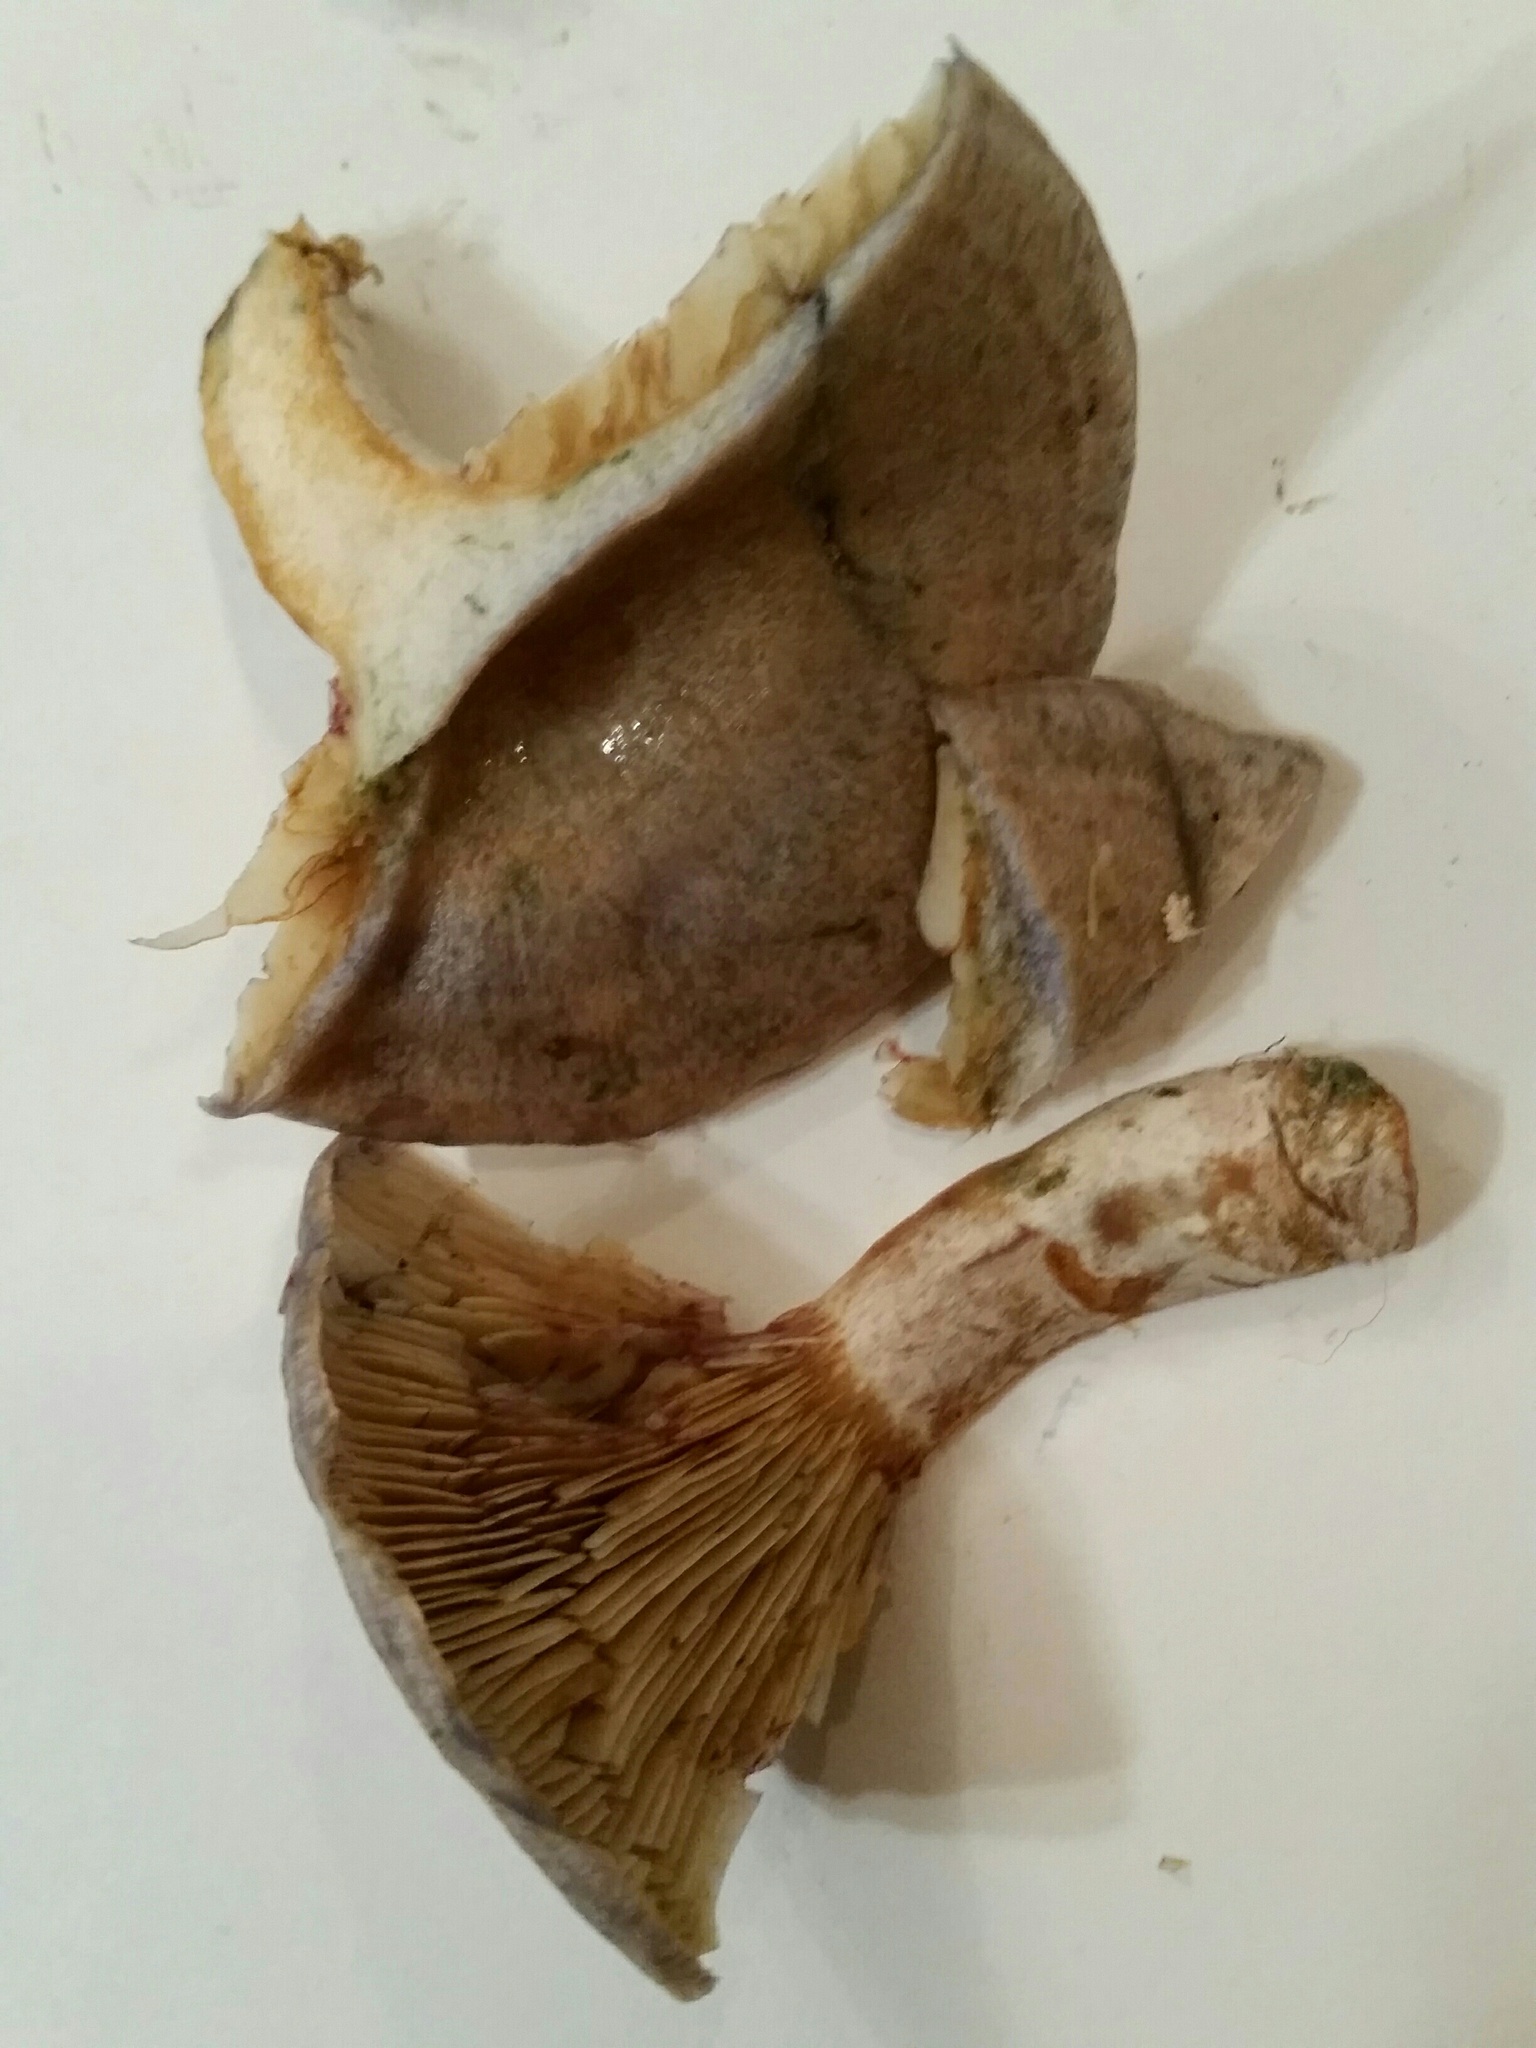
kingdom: Fungi
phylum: Basidiomycota
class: Agaricomycetes
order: Russulales
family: Russulaceae
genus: Lactarius
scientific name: Lactarius chelidonium
